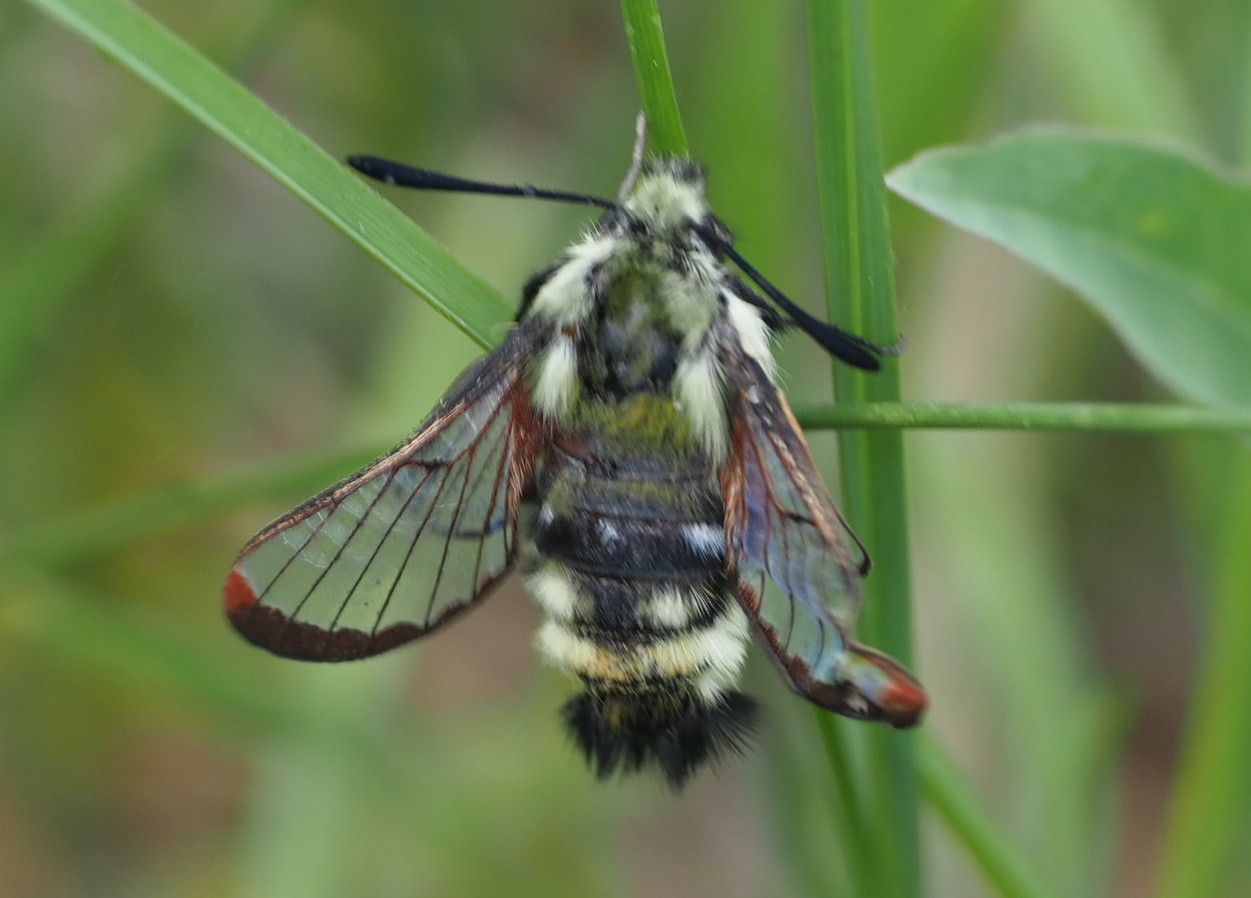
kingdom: Animalia
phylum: Arthropoda
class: Insecta
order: Lepidoptera
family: Sphingidae
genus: Hemaris
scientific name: Hemaris thetis
